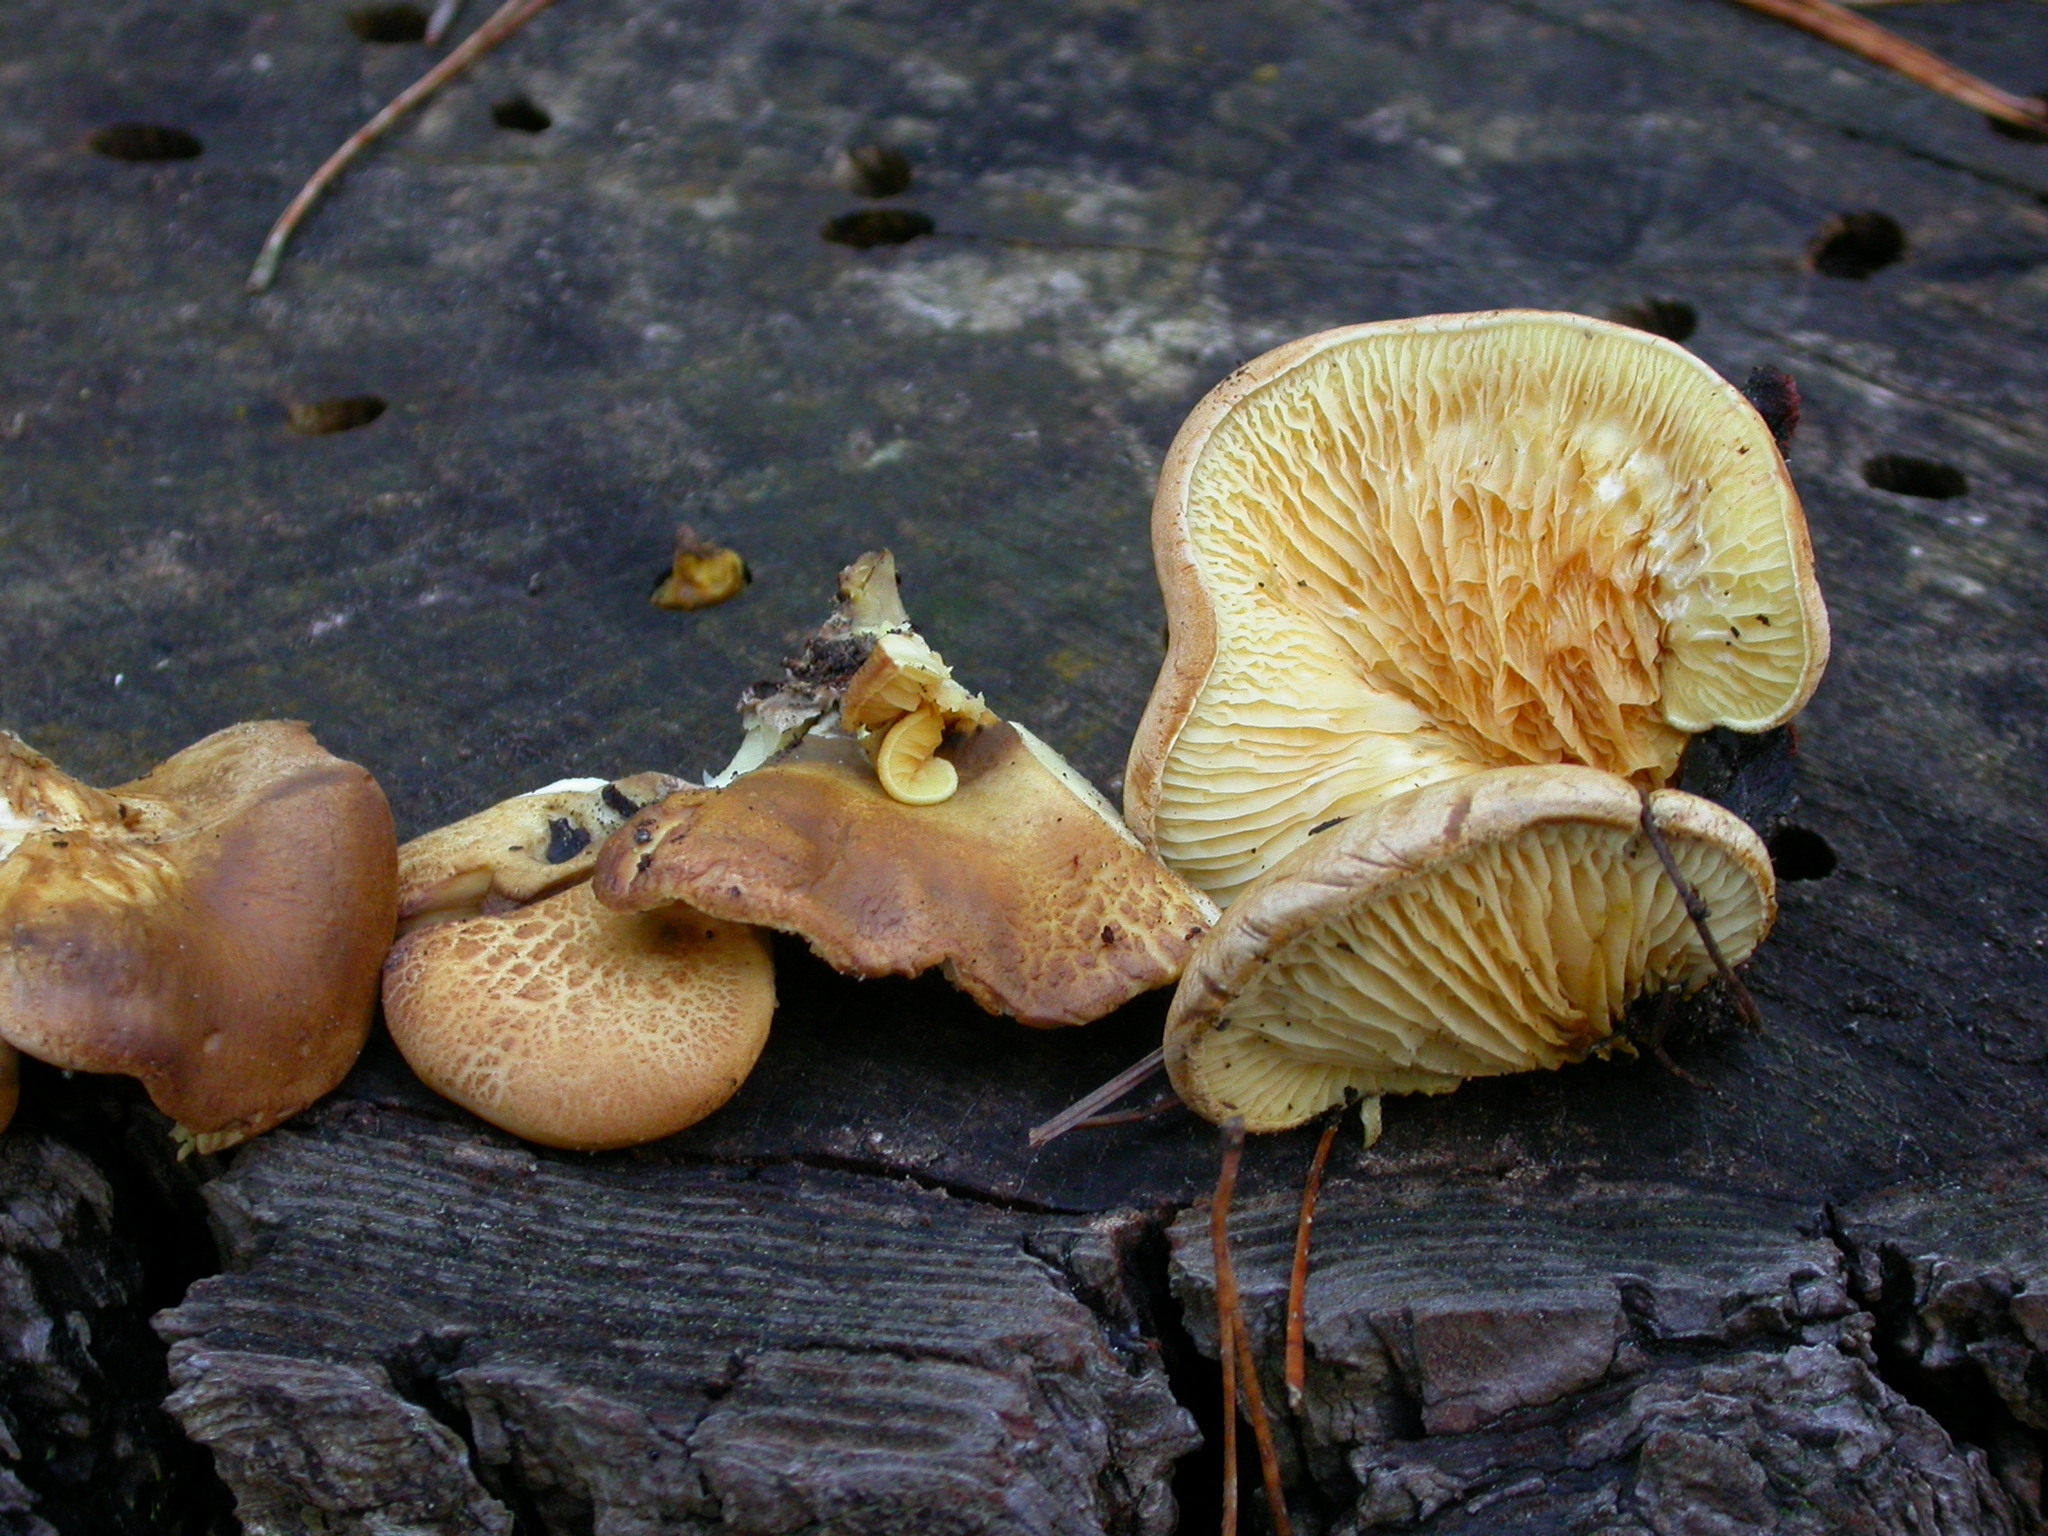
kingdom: Fungi
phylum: Basidiomycota
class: Agaricomycetes
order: Boletales
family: Tapinellaceae
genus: Tapinella
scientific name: Tapinella panuoides
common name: Oyster rollrim
